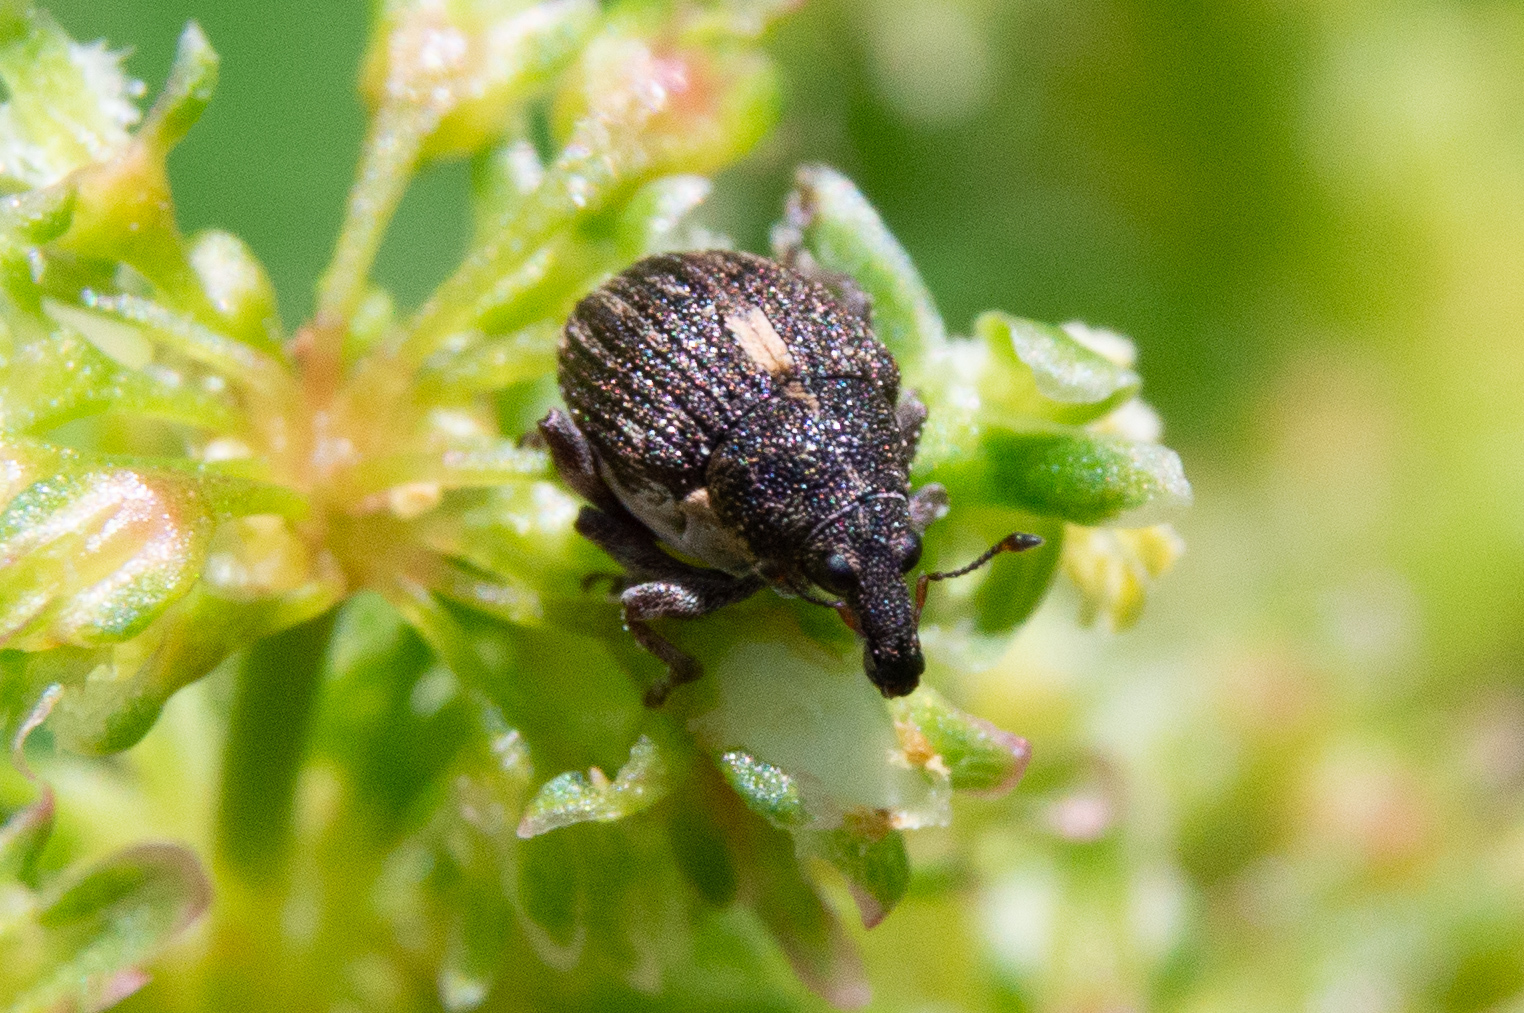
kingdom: Animalia
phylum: Arthropoda
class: Insecta
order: Coleoptera
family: Curculionidae
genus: Rhinoncus
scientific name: Rhinoncus
